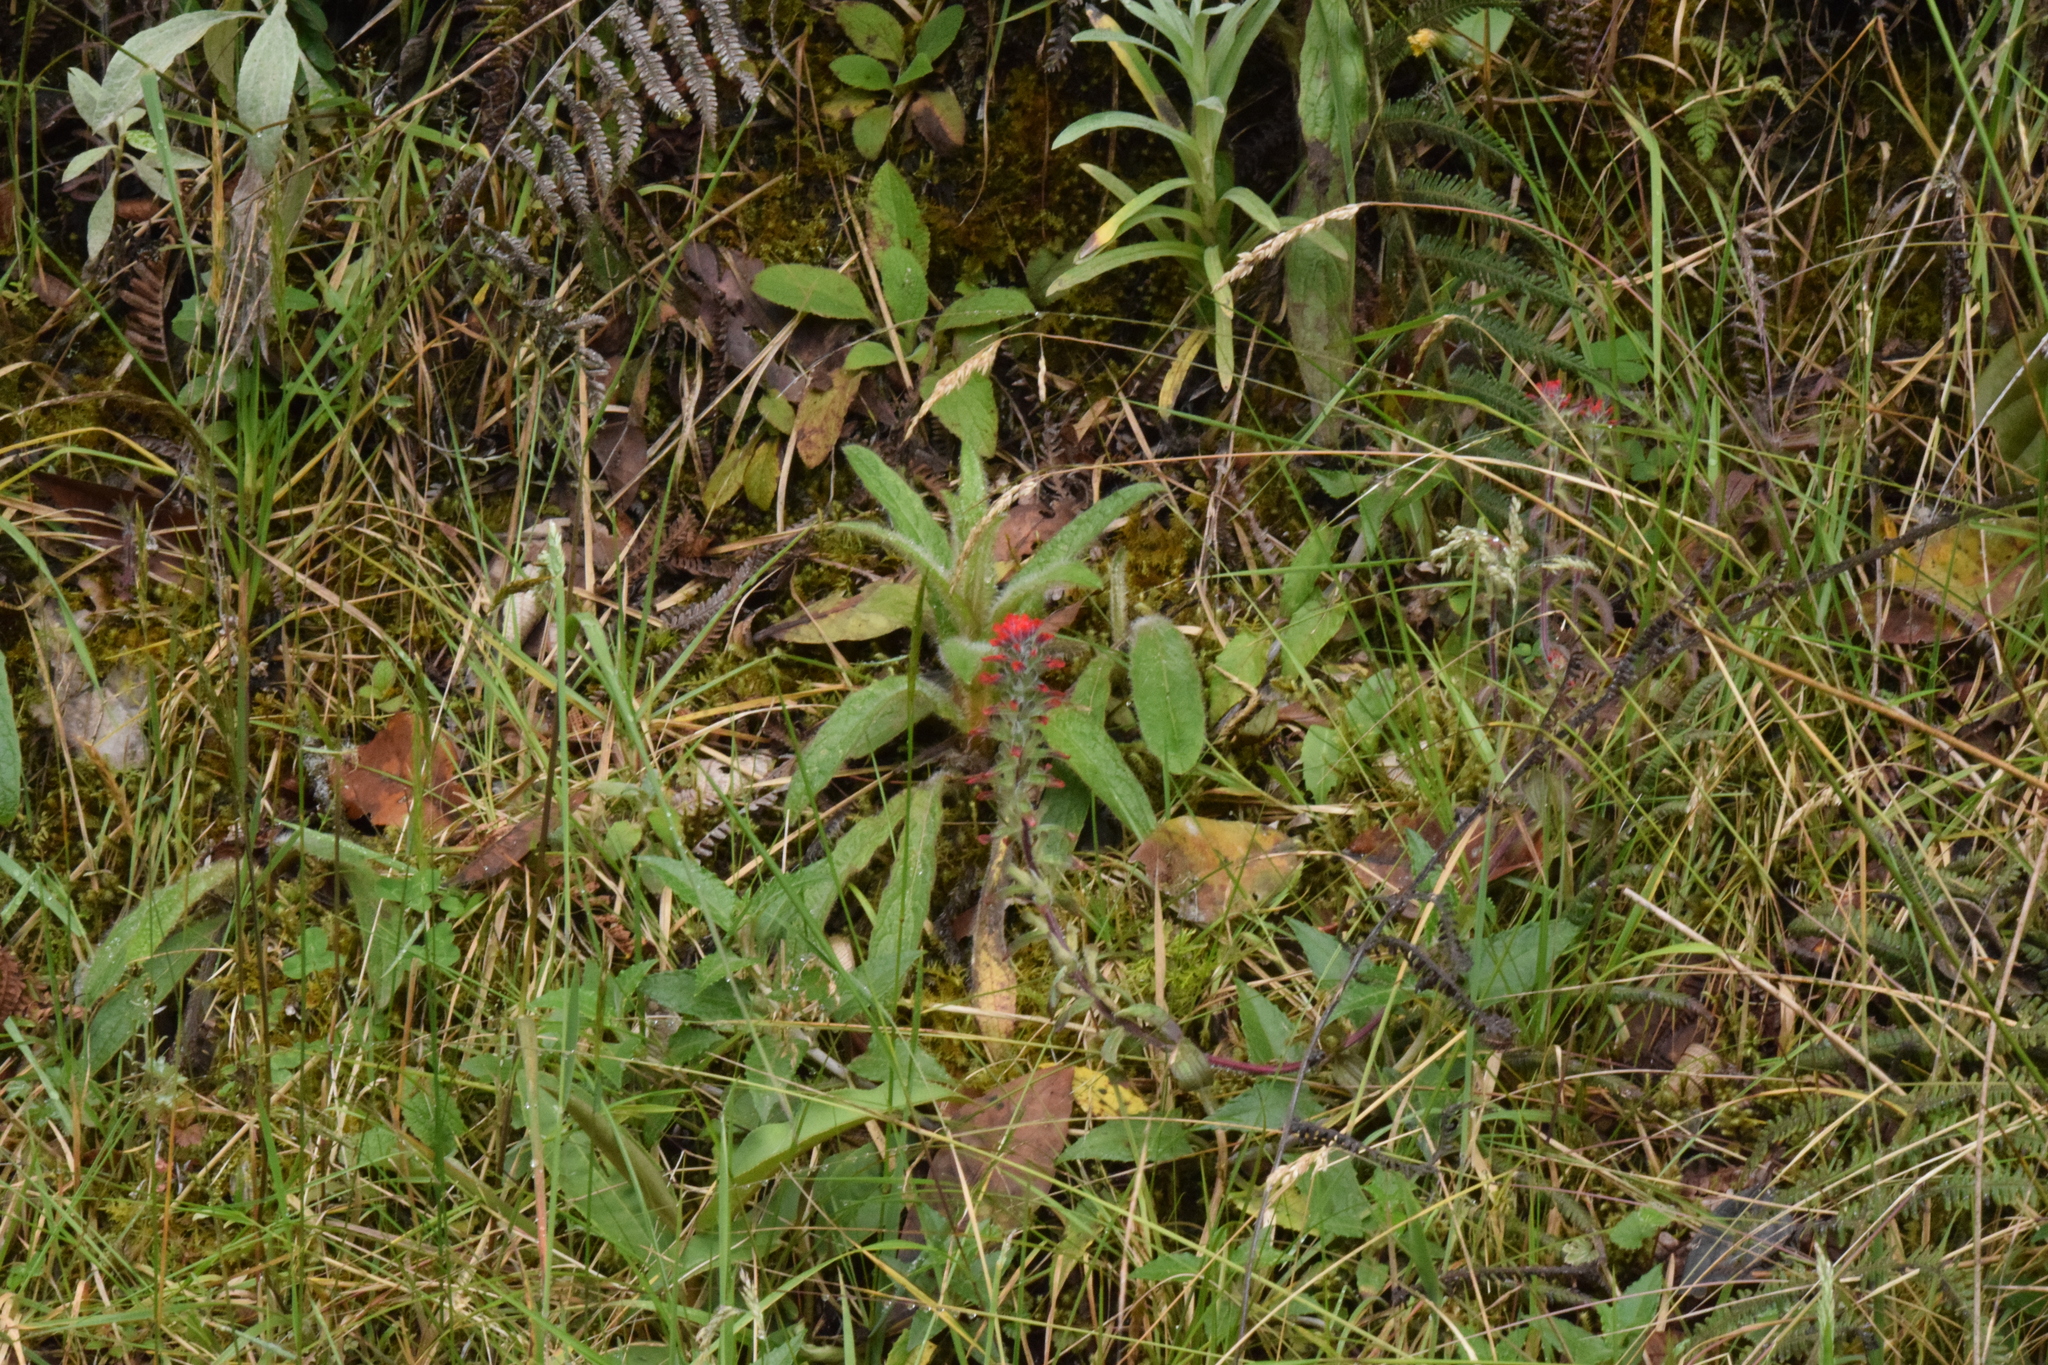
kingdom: Plantae
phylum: Tracheophyta
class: Magnoliopsida
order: Lamiales
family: Orobanchaceae
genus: Castilleja
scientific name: Castilleja arvensis
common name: Indian paintbrush
